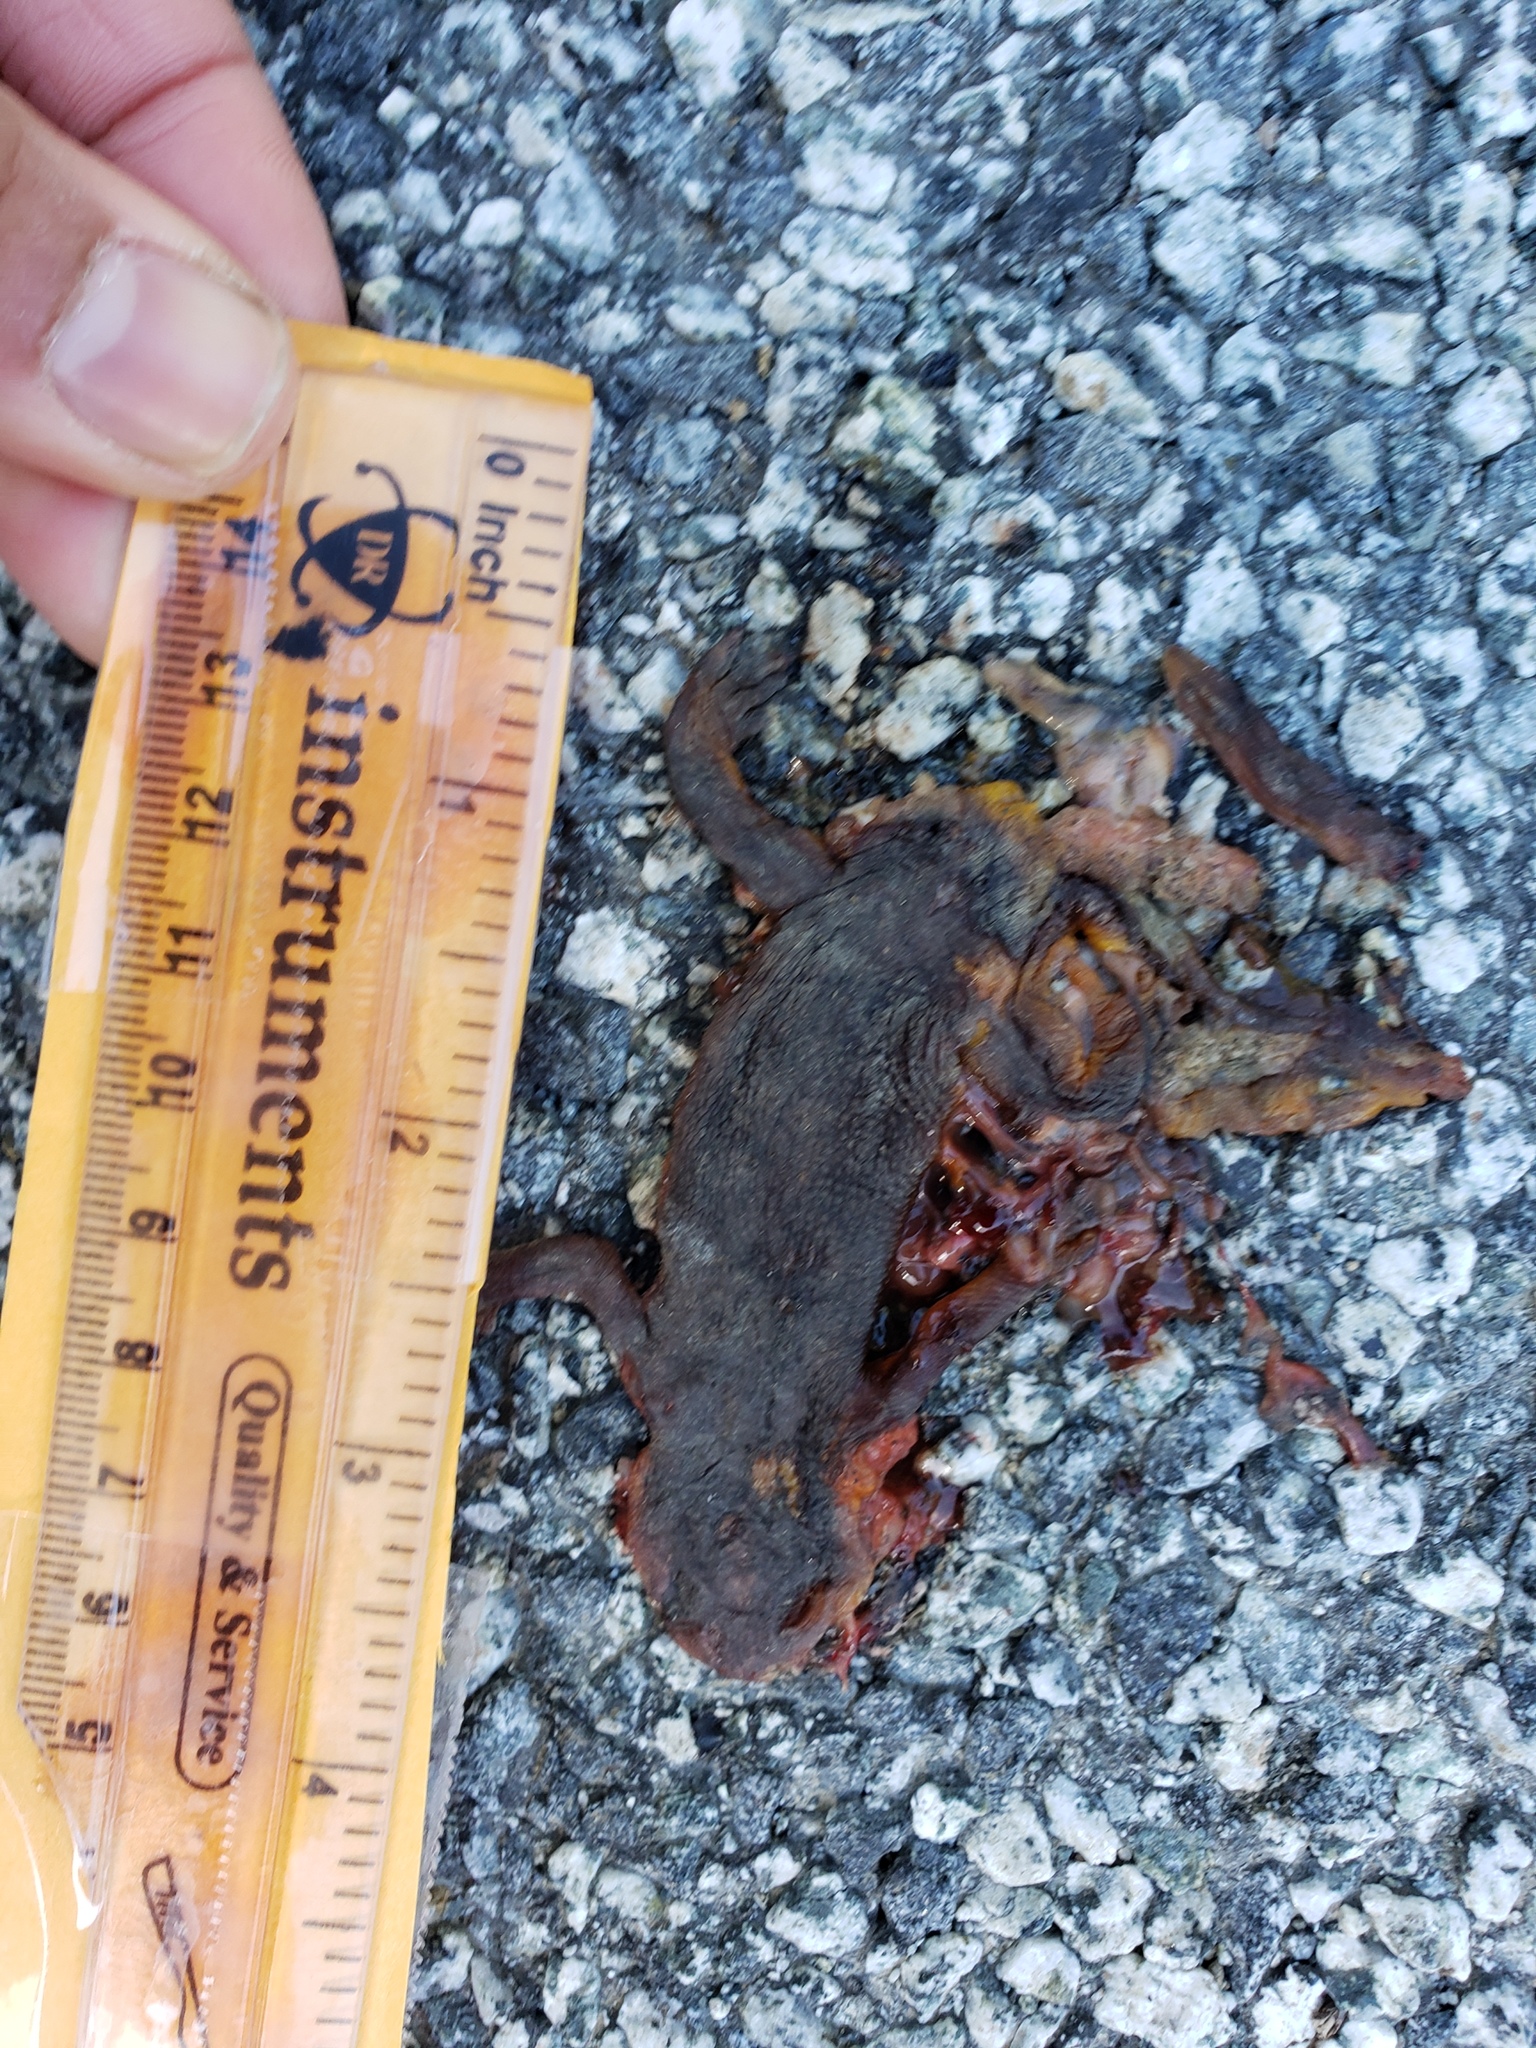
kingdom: Animalia
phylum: Chordata
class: Amphibia
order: Caudata
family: Salamandridae
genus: Taricha
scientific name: Taricha
